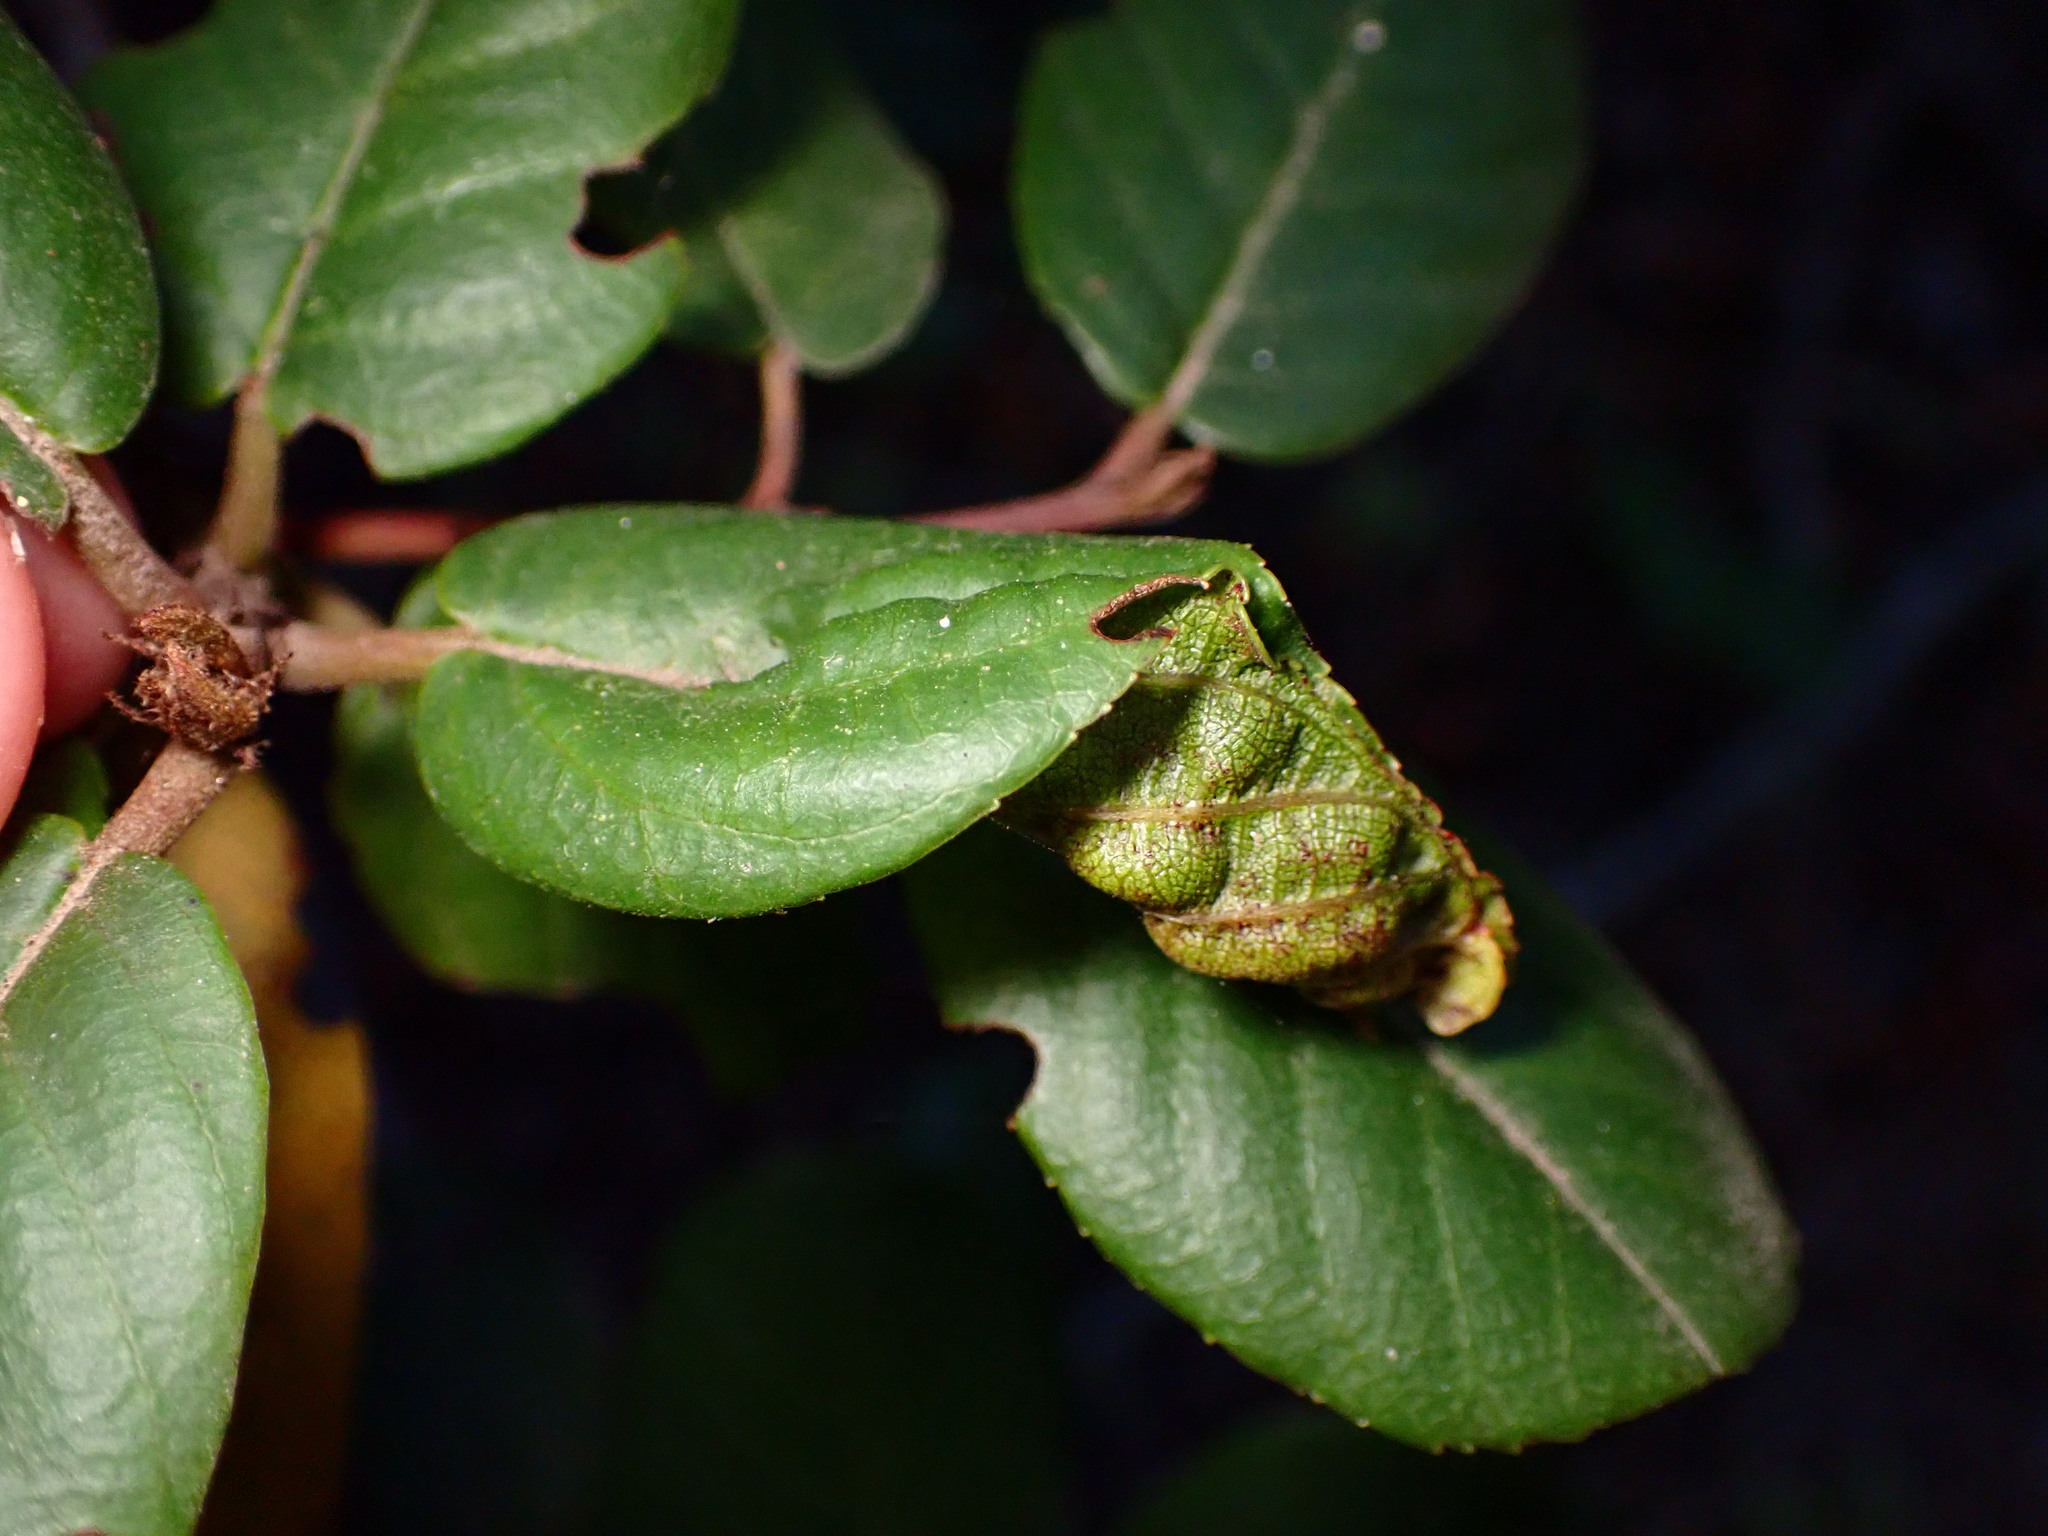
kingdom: Animalia
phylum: Arthropoda
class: Insecta
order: Lepidoptera
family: Cosmopterigidae
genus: Sorhagenia
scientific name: Sorhagenia nimbosus
